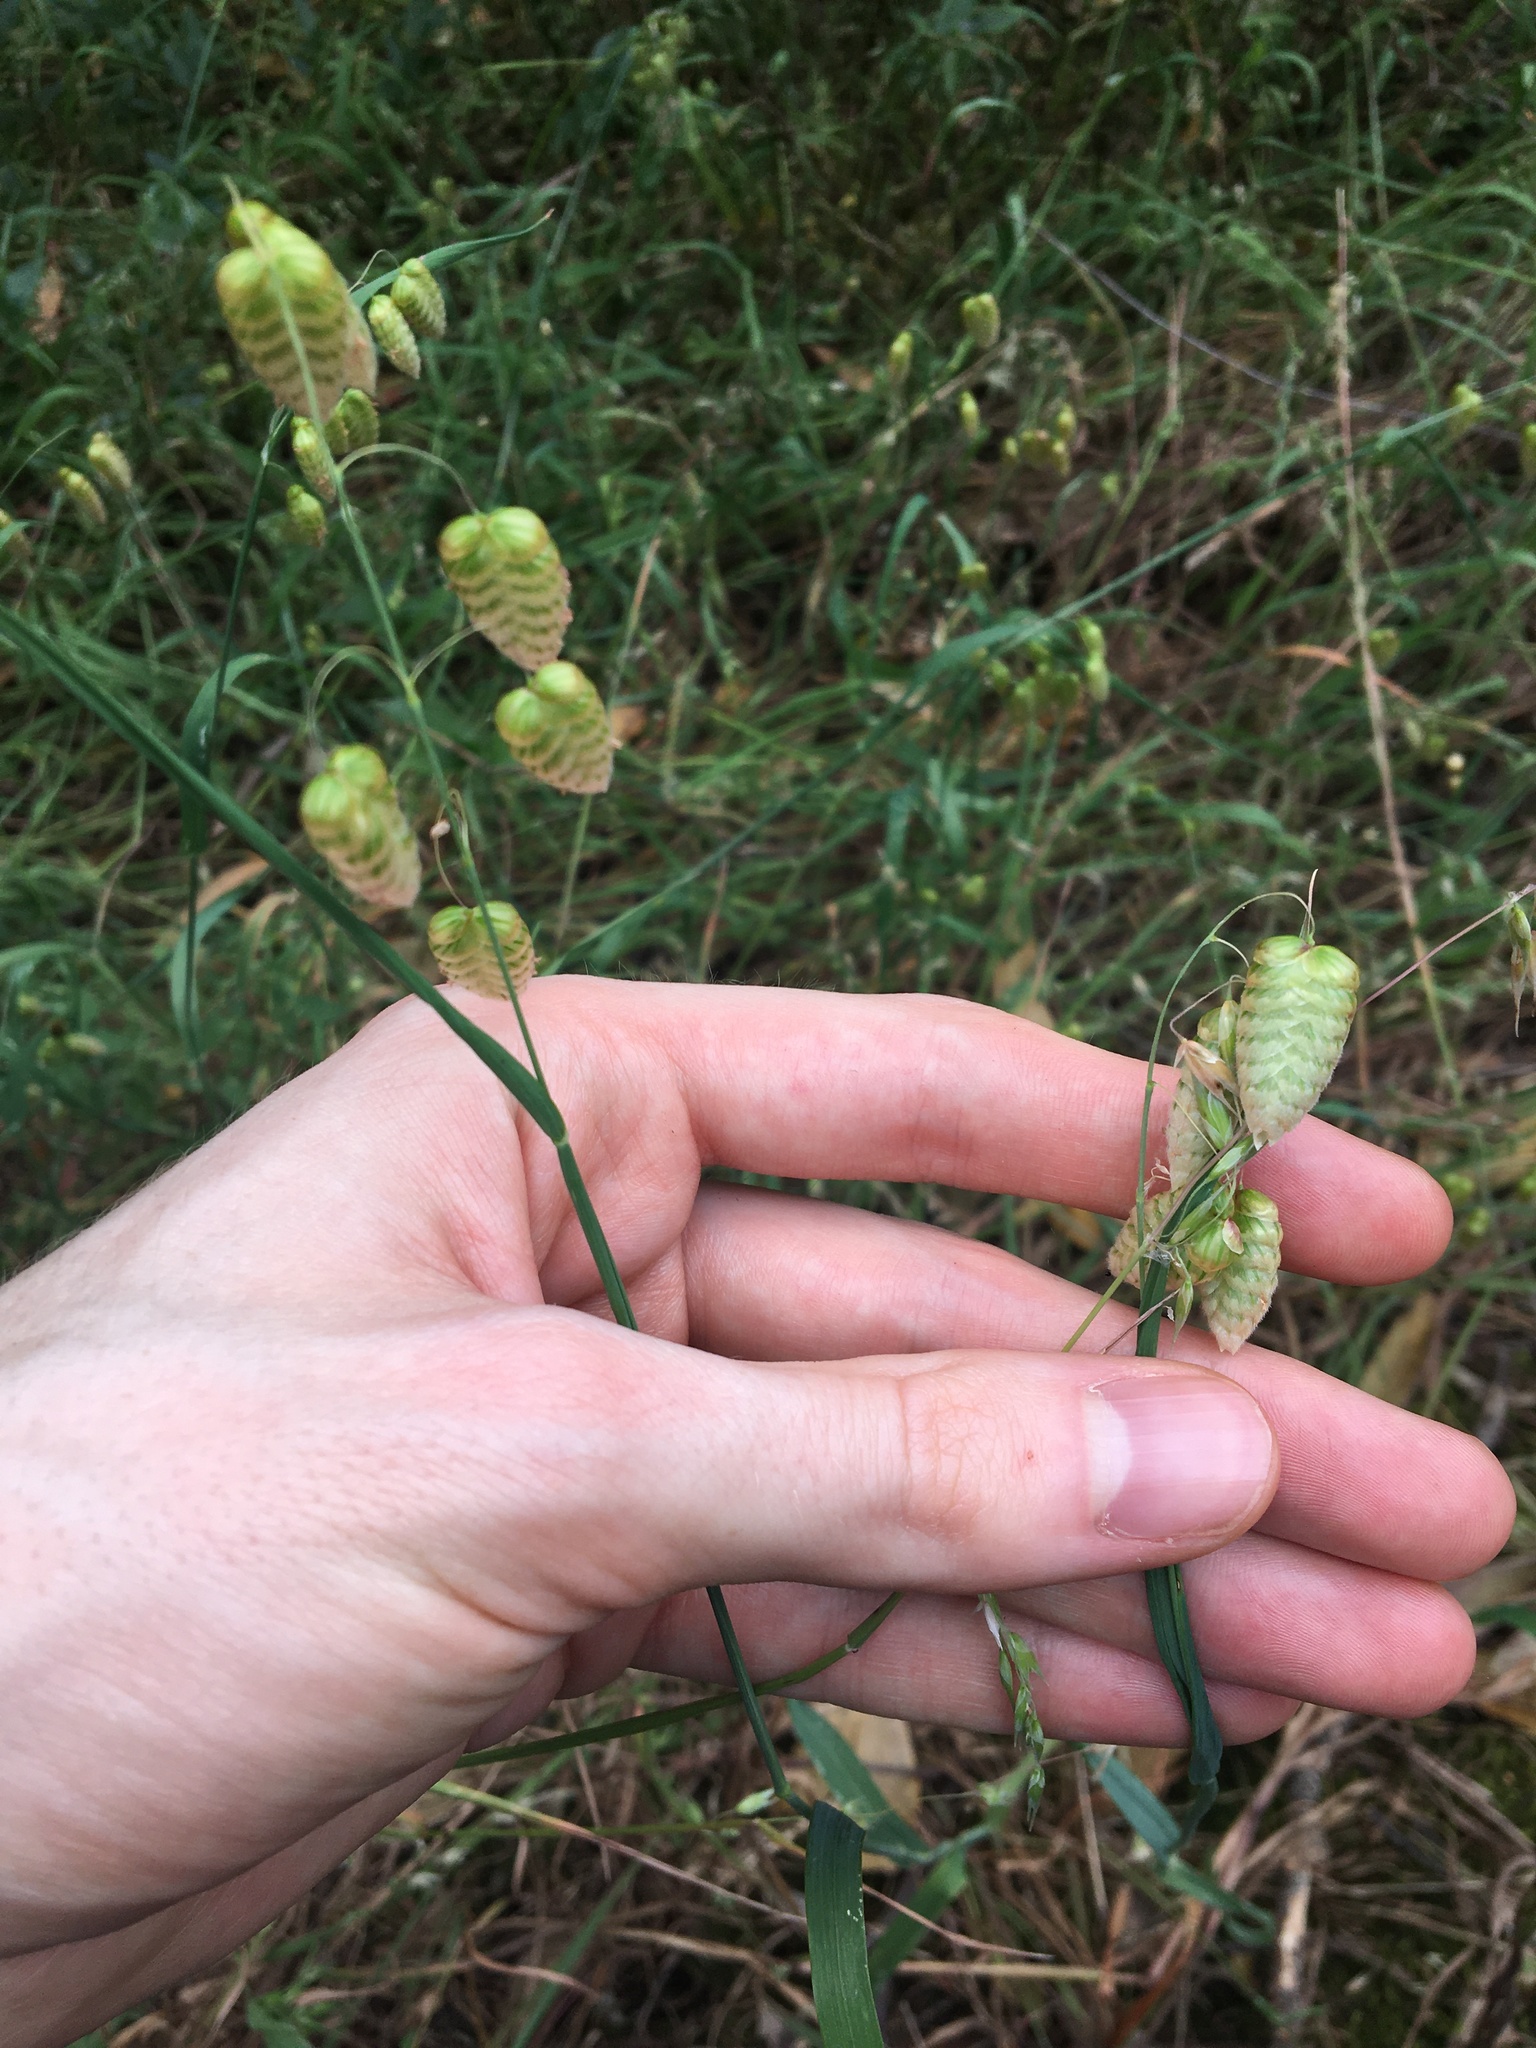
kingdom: Plantae
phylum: Tracheophyta
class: Liliopsida
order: Poales
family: Poaceae
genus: Briza
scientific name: Briza maxima
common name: Big quakinggrass
